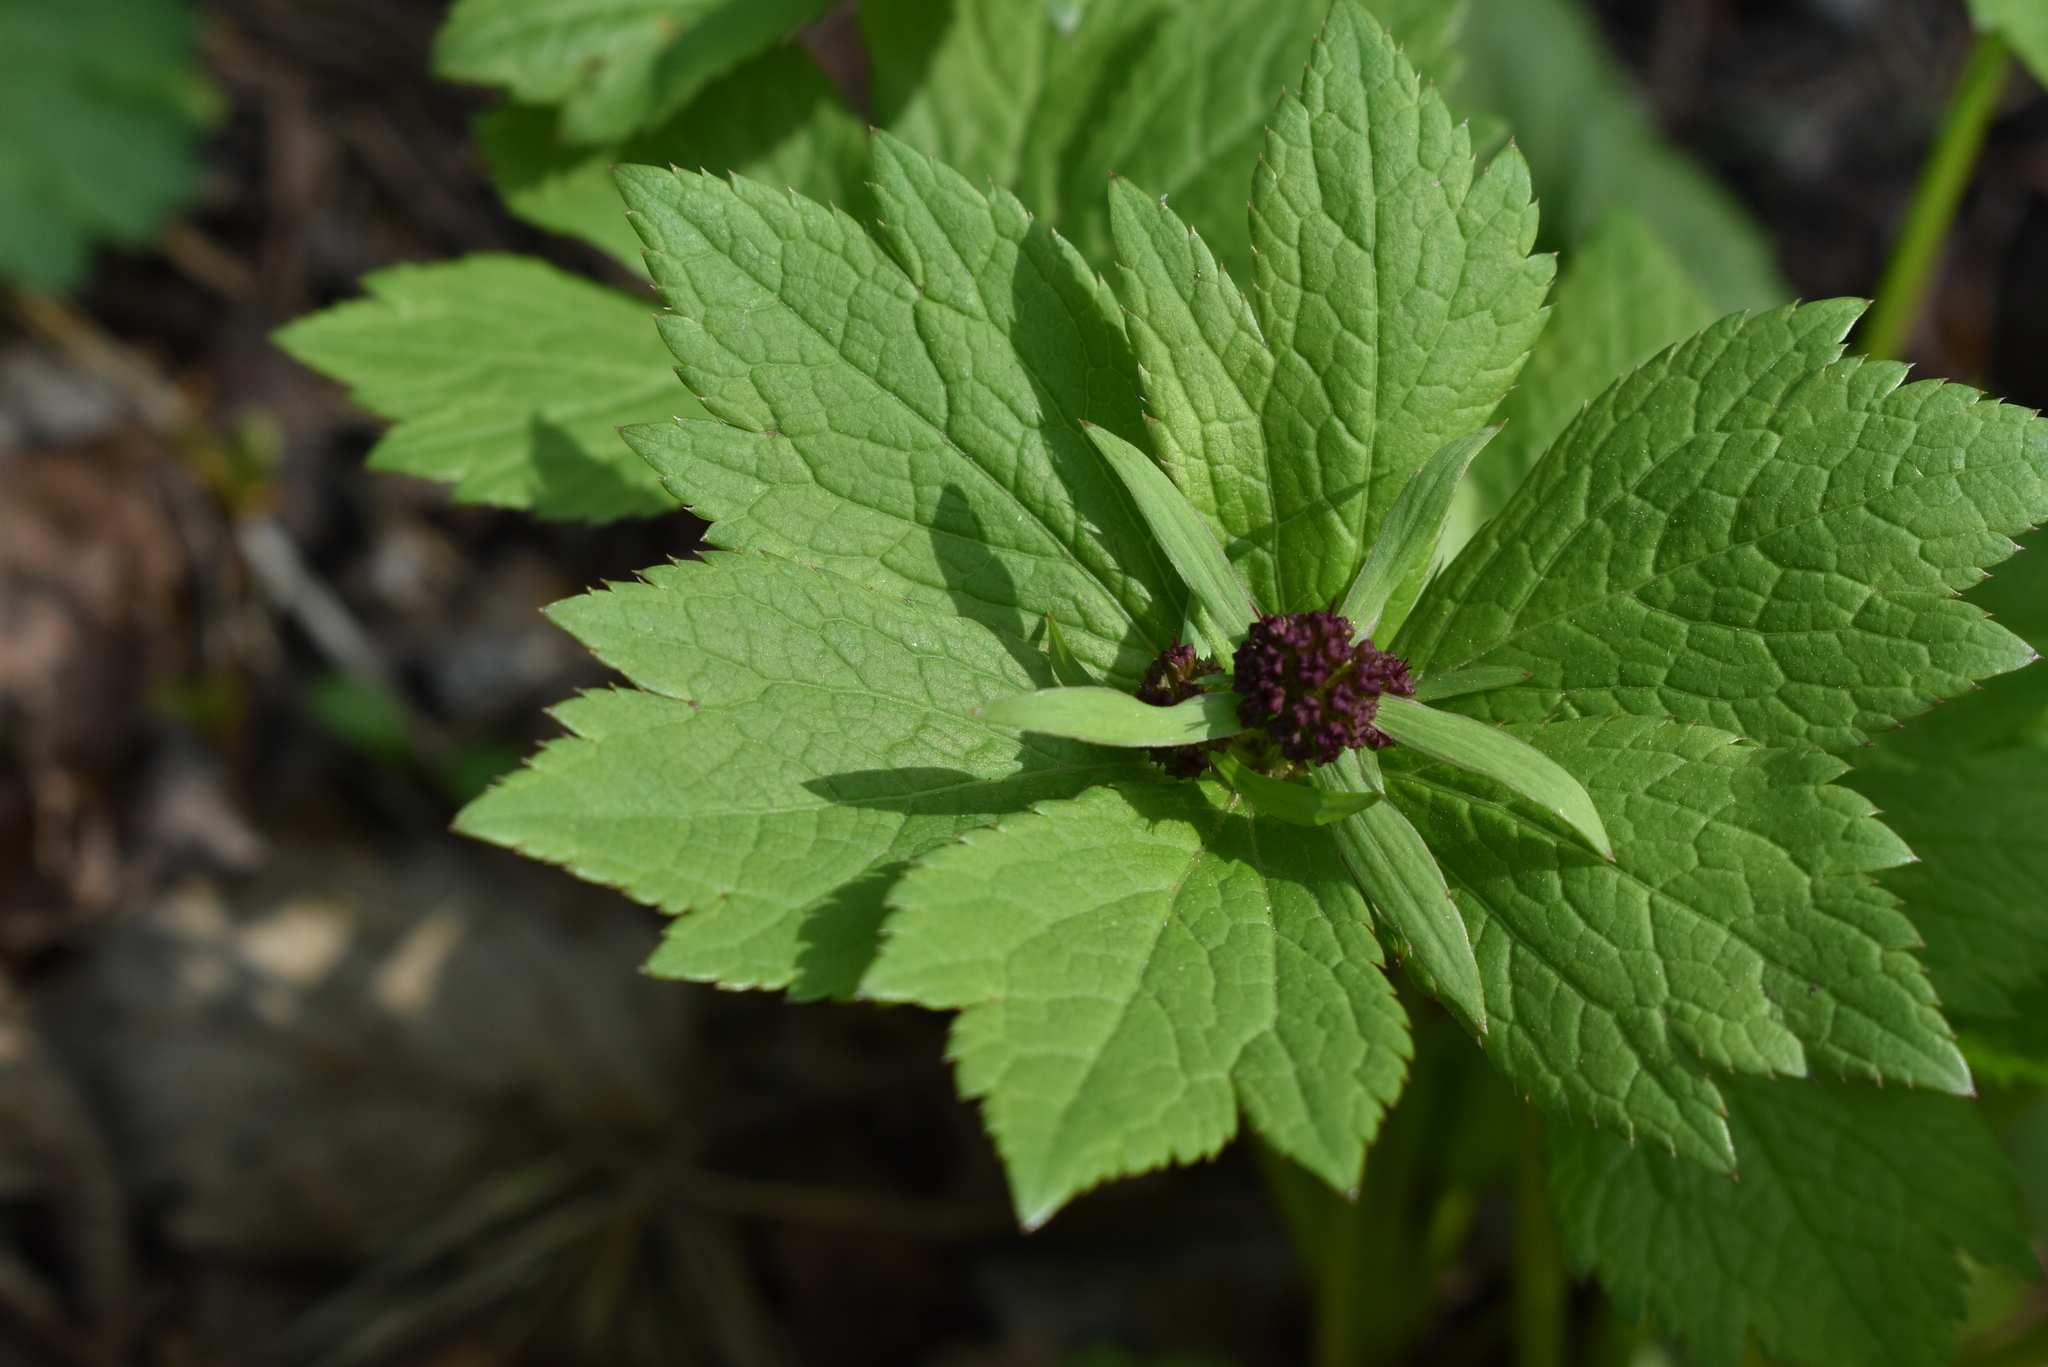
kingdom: Plantae
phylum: Tracheophyta
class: Magnoliopsida
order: Apiales
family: Apiaceae
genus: Sanicula
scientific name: Sanicula rubriflora
